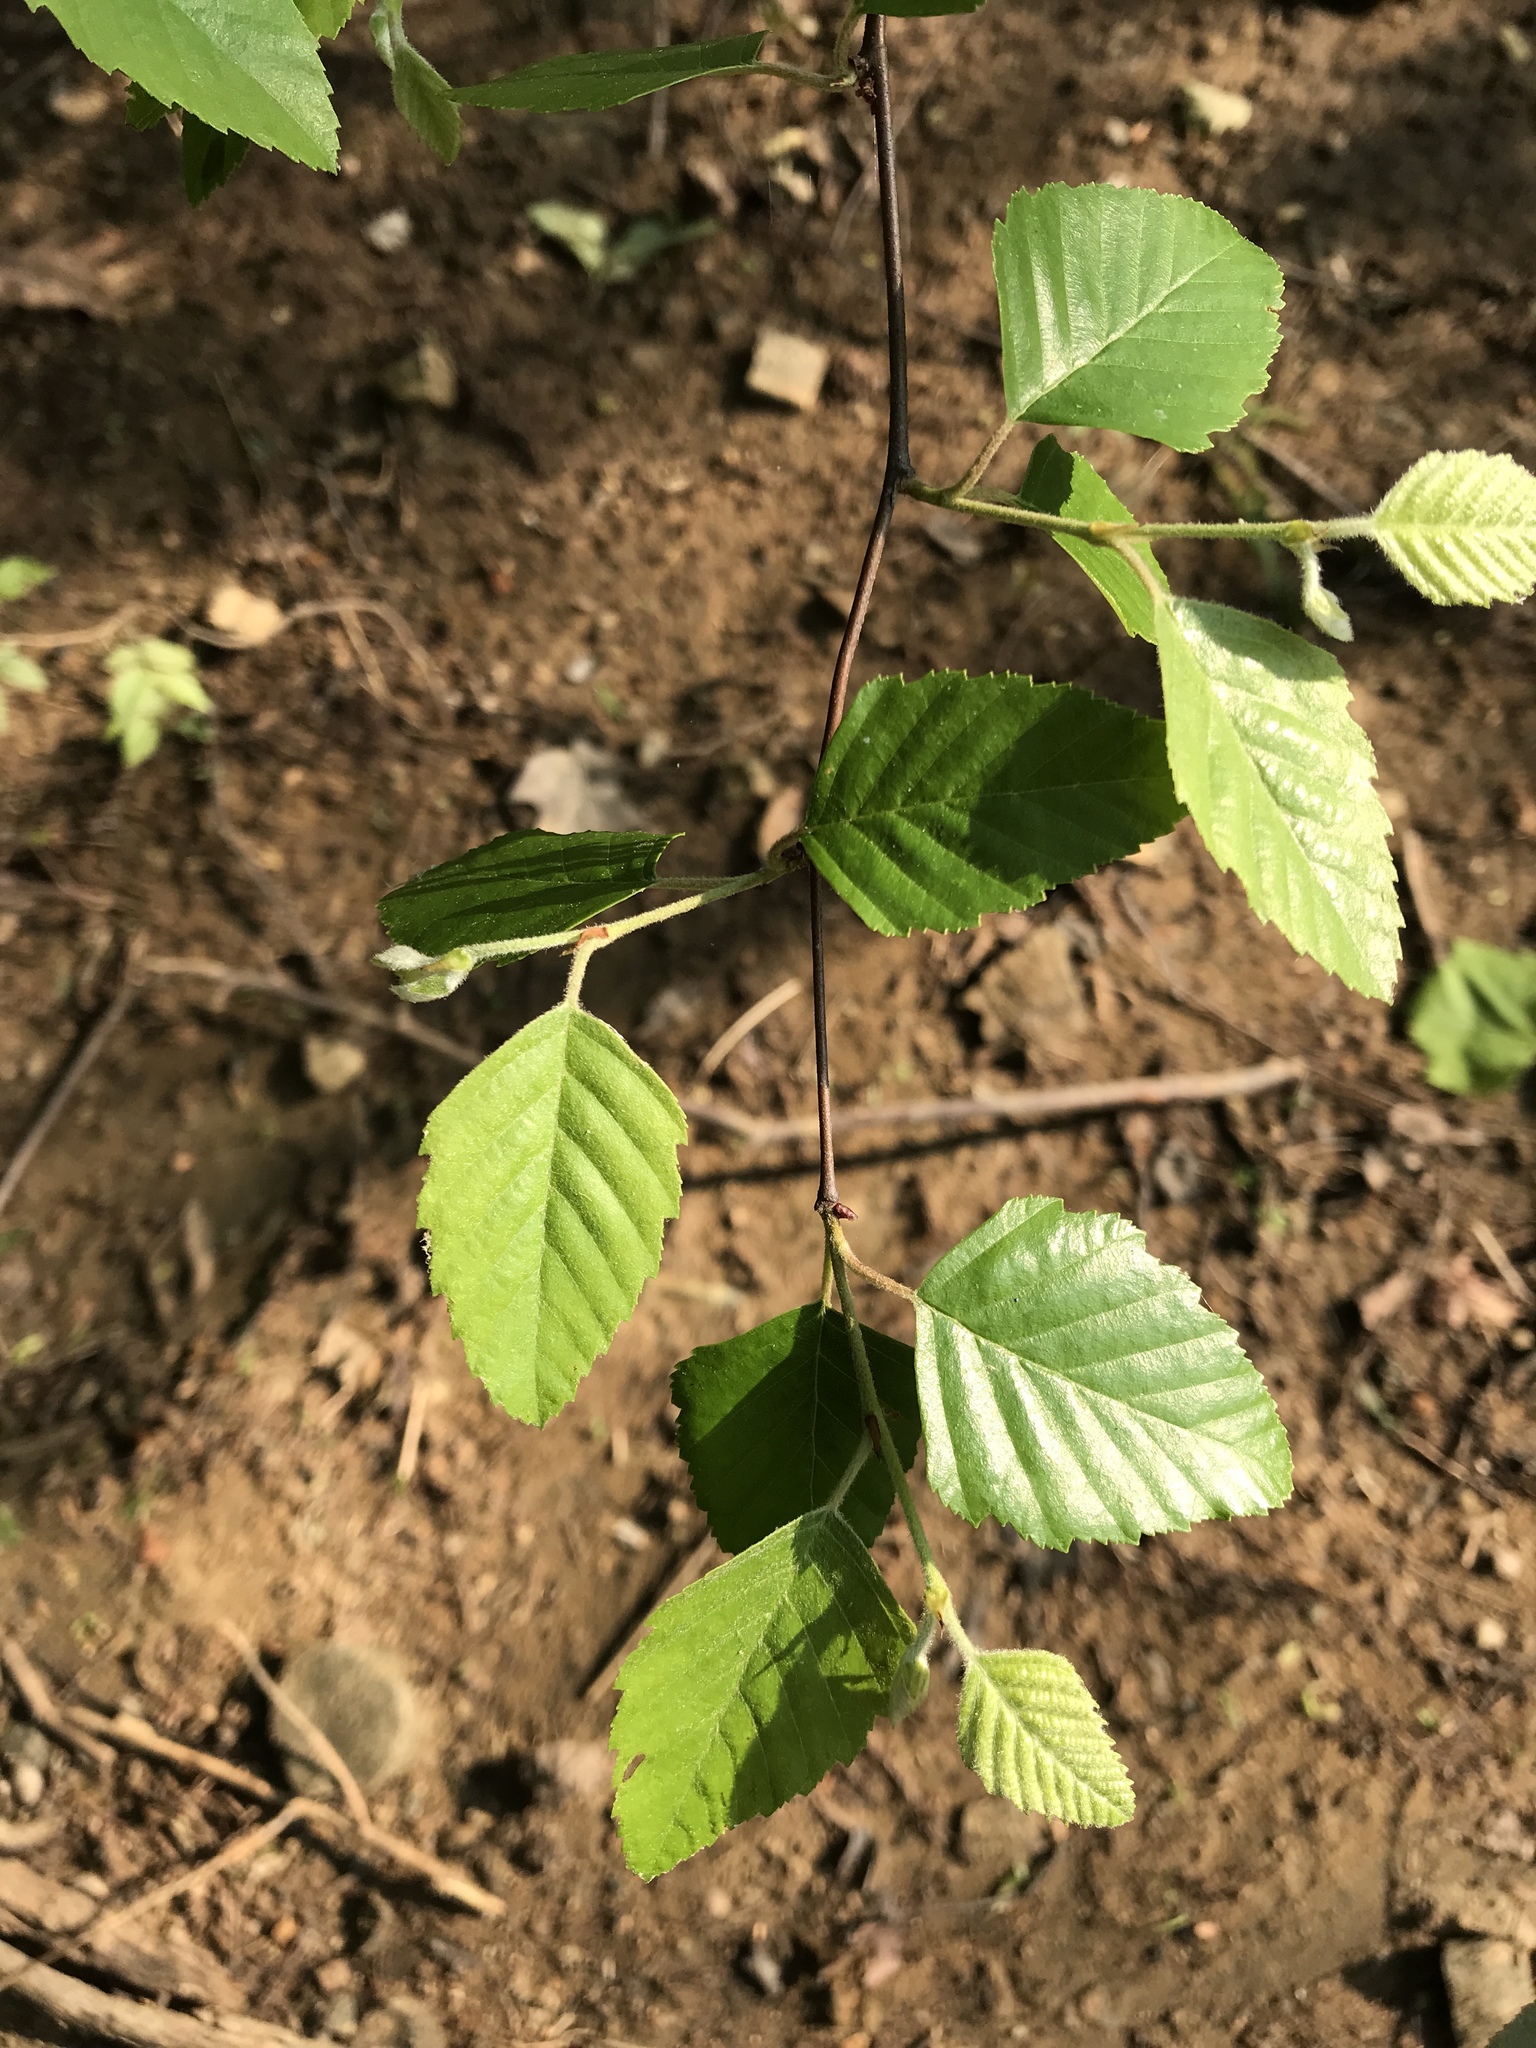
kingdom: Plantae
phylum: Tracheophyta
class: Magnoliopsida
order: Fagales
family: Betulaceae
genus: Betula
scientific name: Betula nigra
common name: Black birch
